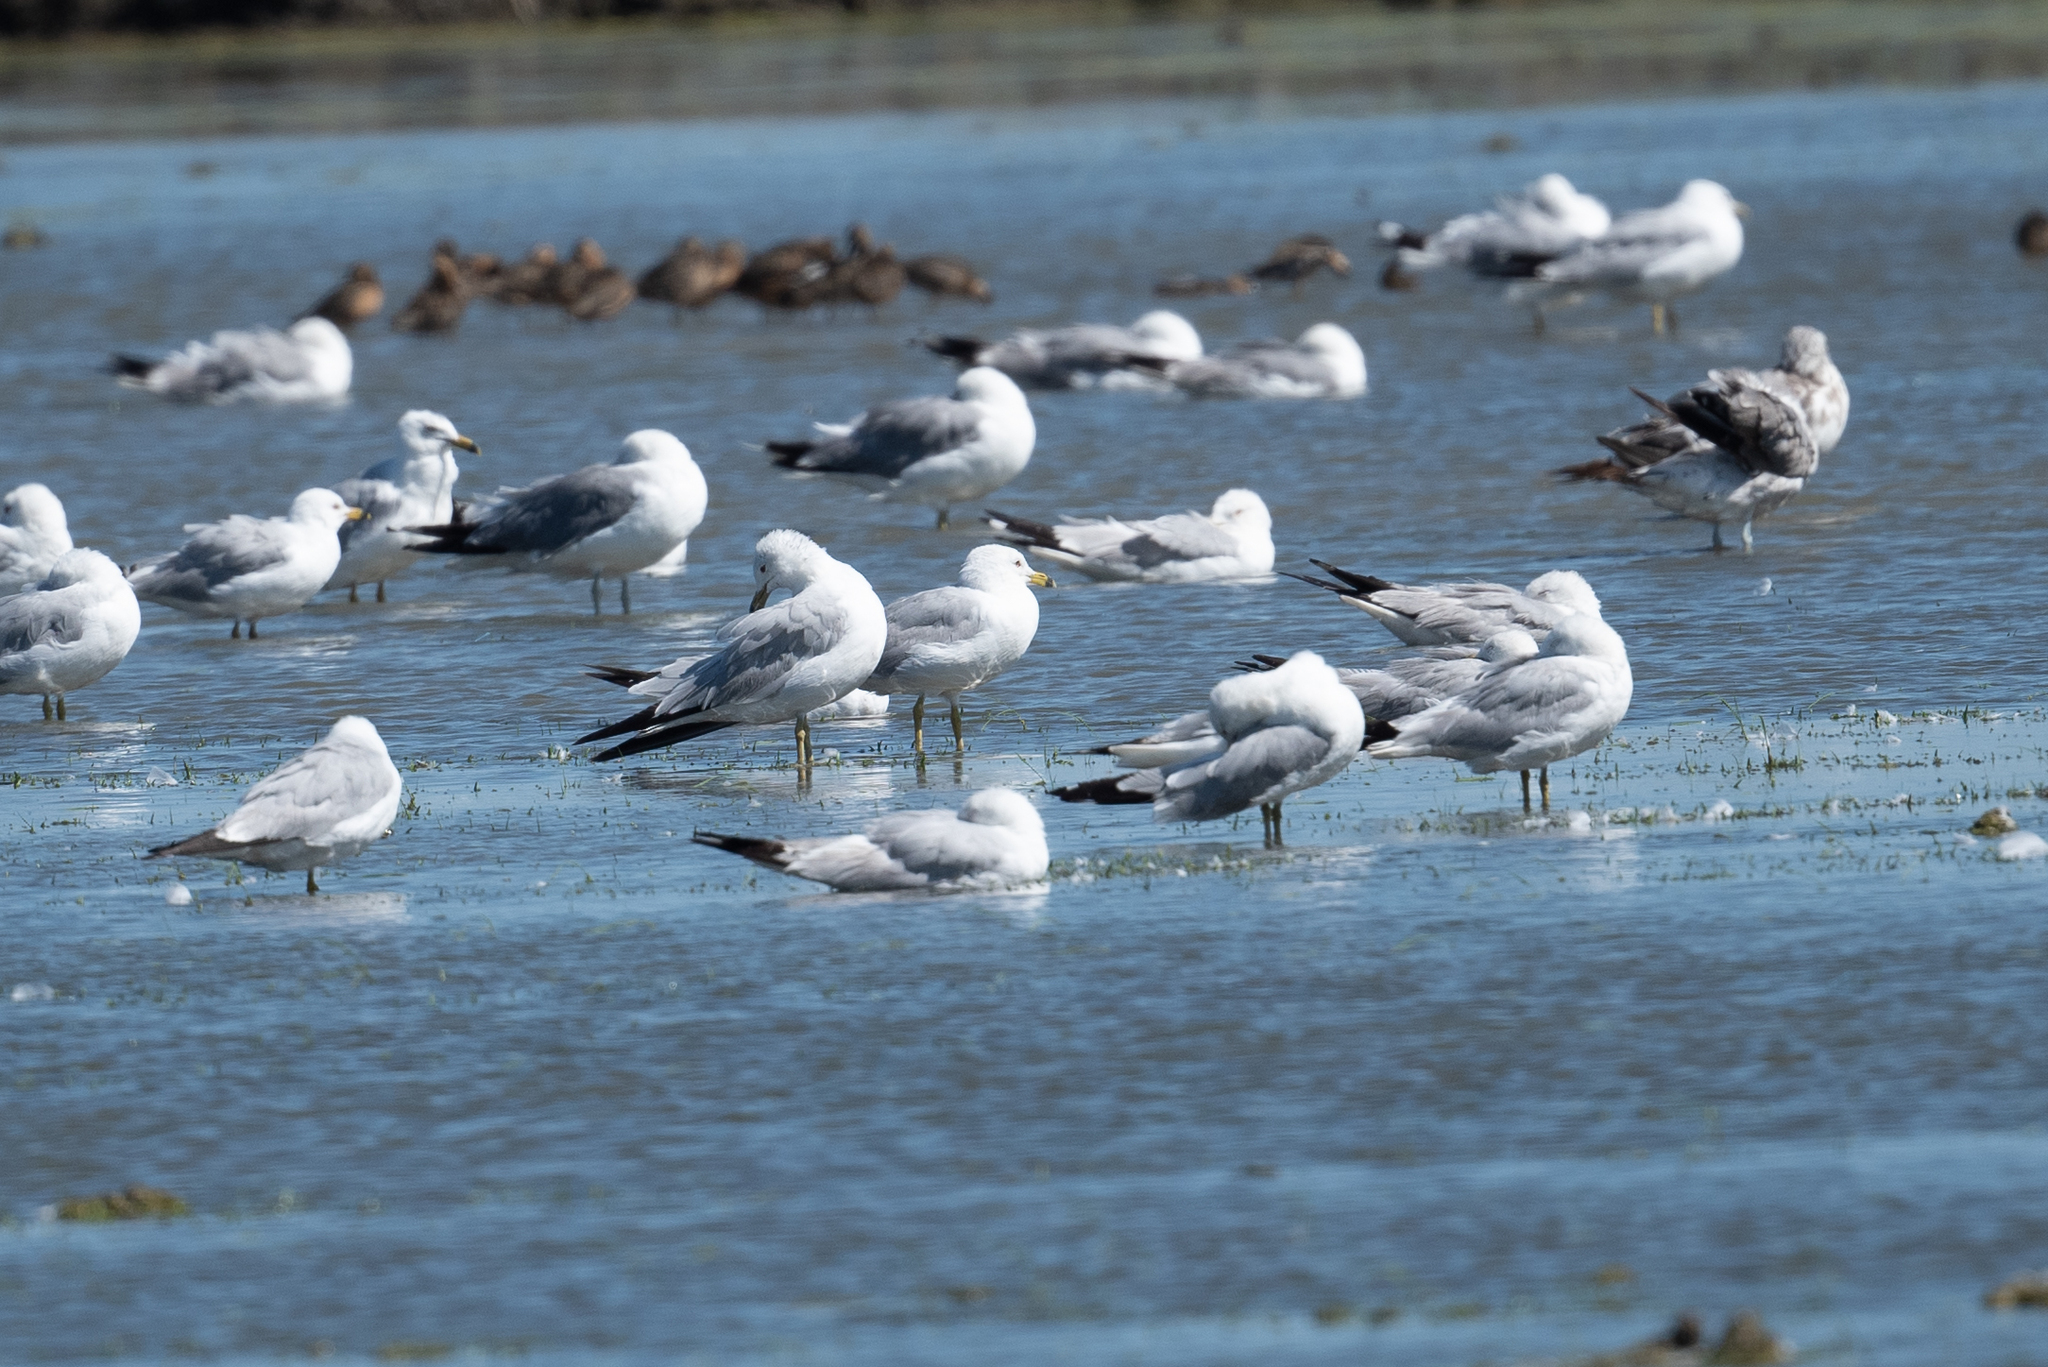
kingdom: Animalia
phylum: Chordata
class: Aves
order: Charadriiformes
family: Laridae
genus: Larus
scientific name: Larus delawarensis
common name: Ring-billed gull
